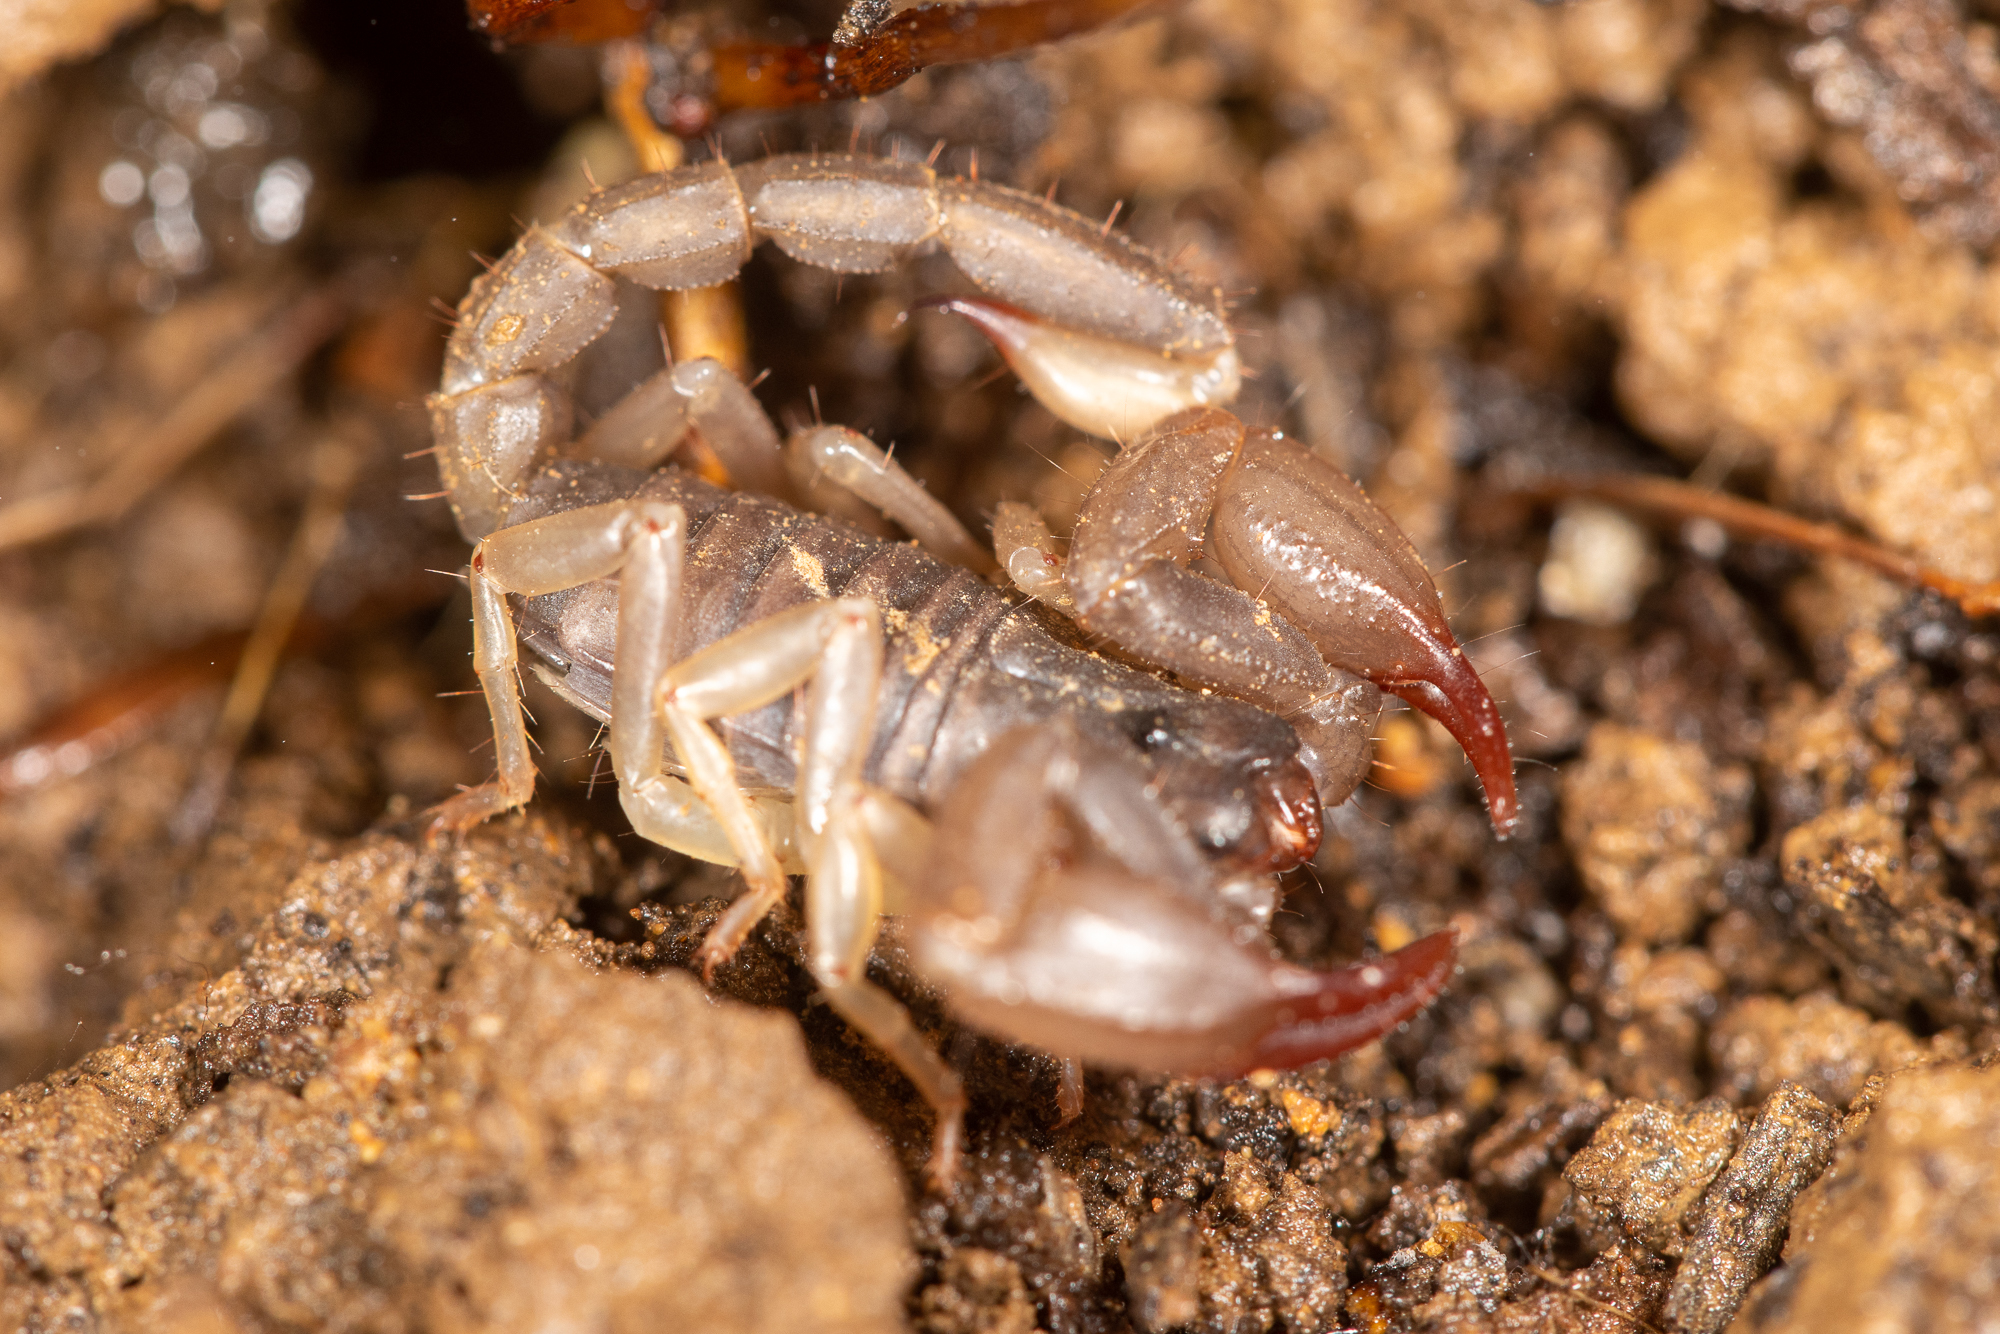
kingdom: Animalia
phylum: Arthropoda
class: Arachnida
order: Scorpiones
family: Chactidae
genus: Uroctonus
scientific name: Uroctonus mordax
